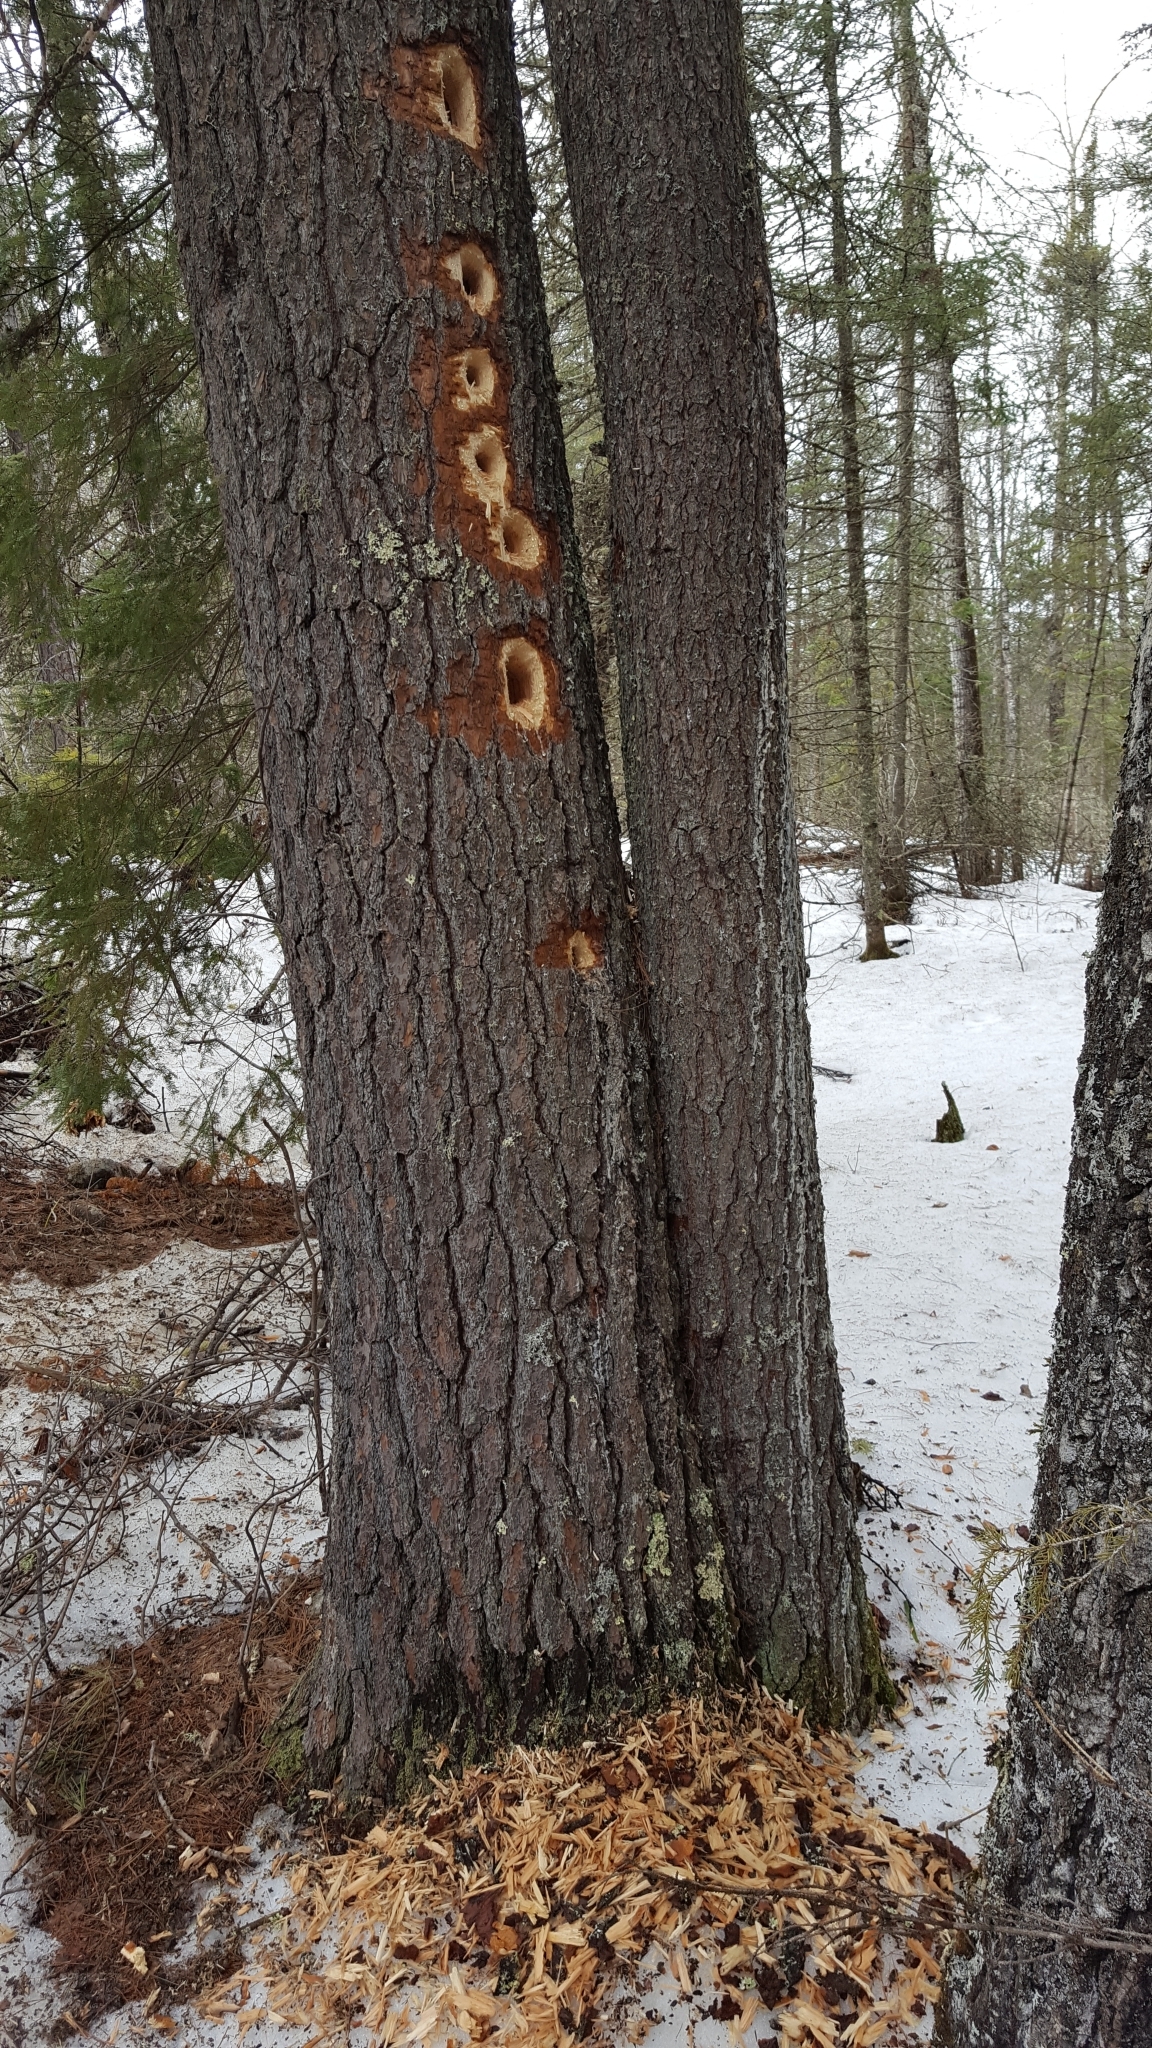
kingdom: Animalia
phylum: Chordata
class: Aves
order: Piciformes
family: Picidae
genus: Dryocopus
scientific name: Dryocopus pileatus
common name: Pileated woodpecker
